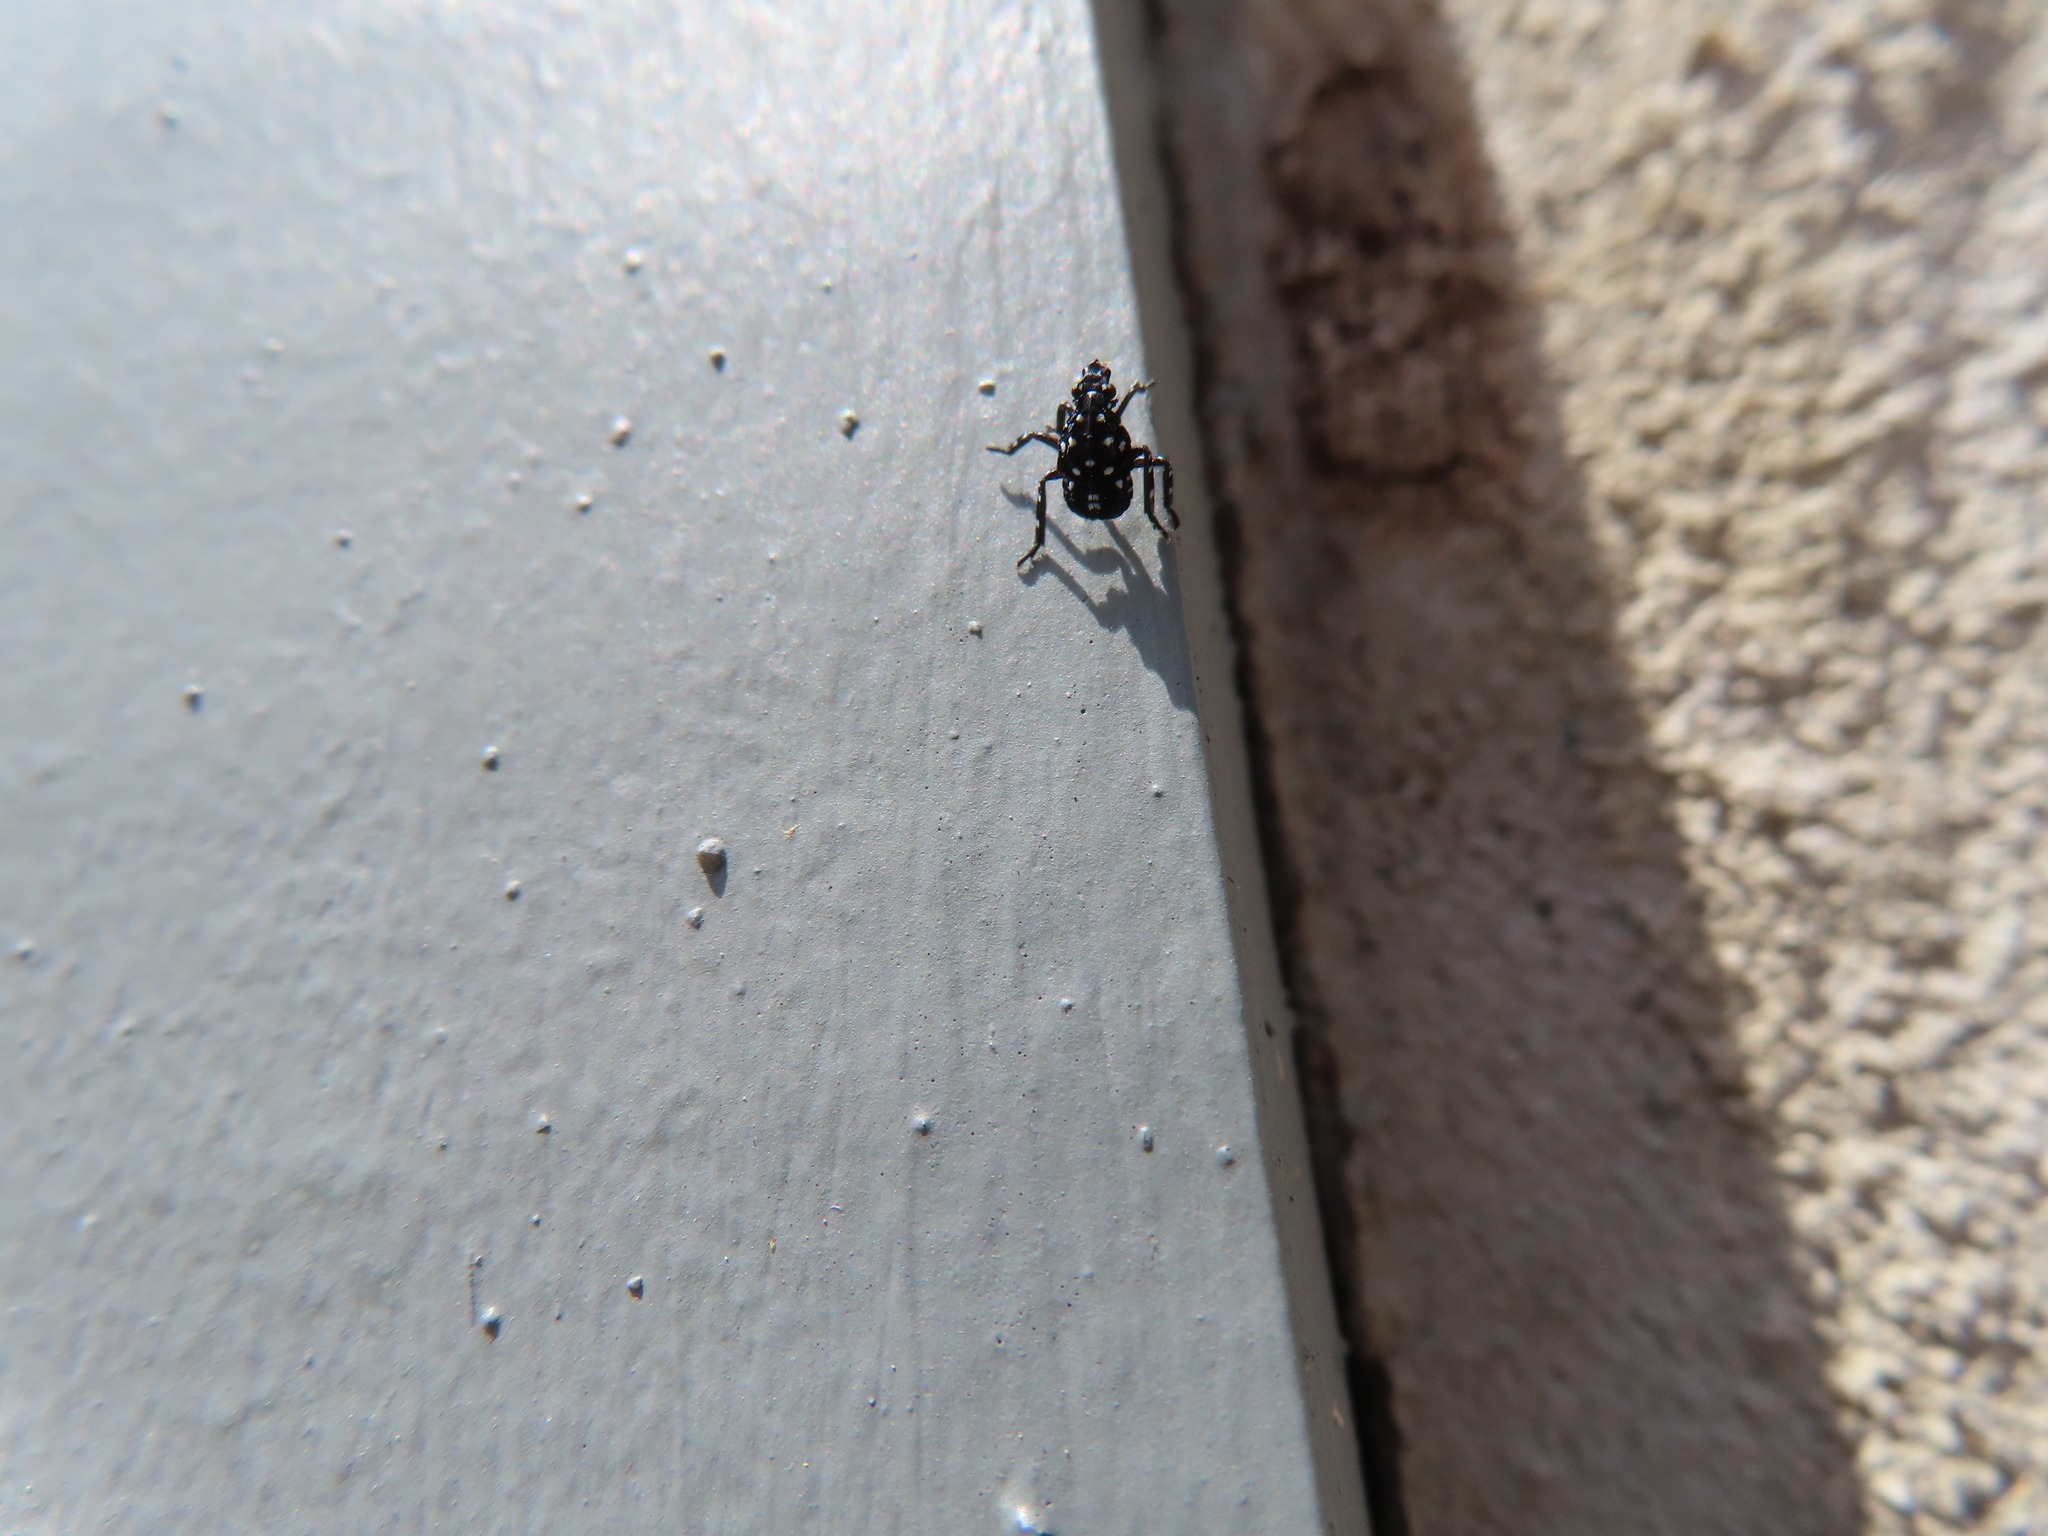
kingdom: Animalia
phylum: Arthropoda
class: Insecta
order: Hemiptera
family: Fulgoridae
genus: Lycorma
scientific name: Lycorma delicatula
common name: Spotted lanternfly
